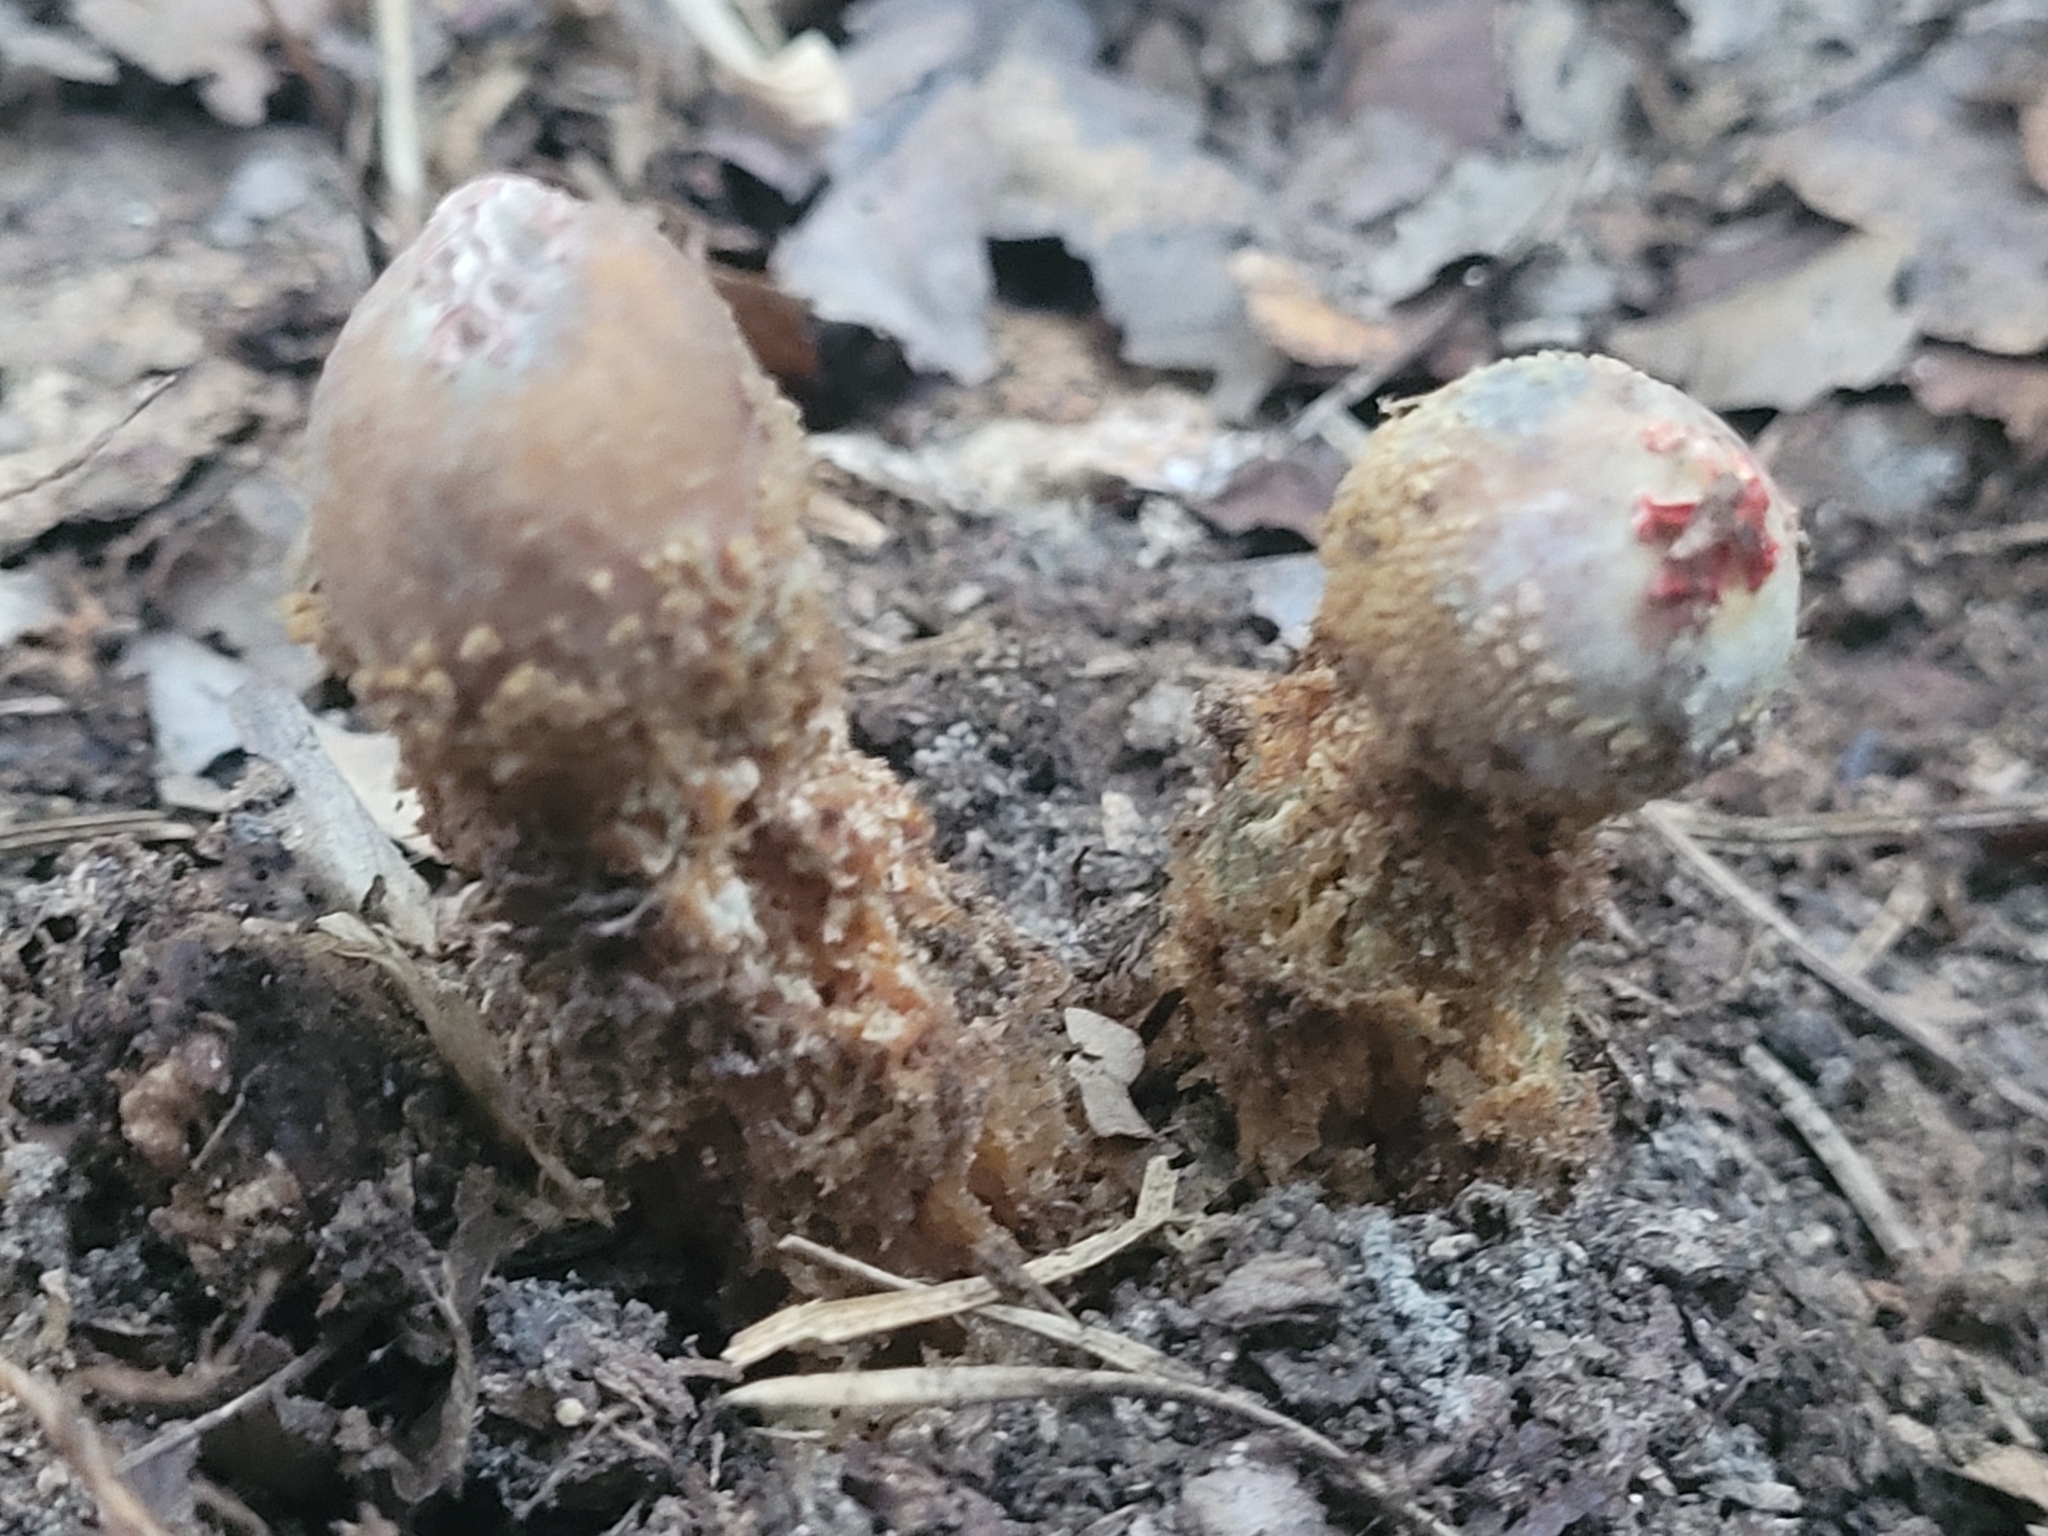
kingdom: Fungi
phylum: Basidiomycota
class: Agaricomycetes
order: Boletales
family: Calostomataceae
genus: Calostoma
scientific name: Calostoma ravenelii
